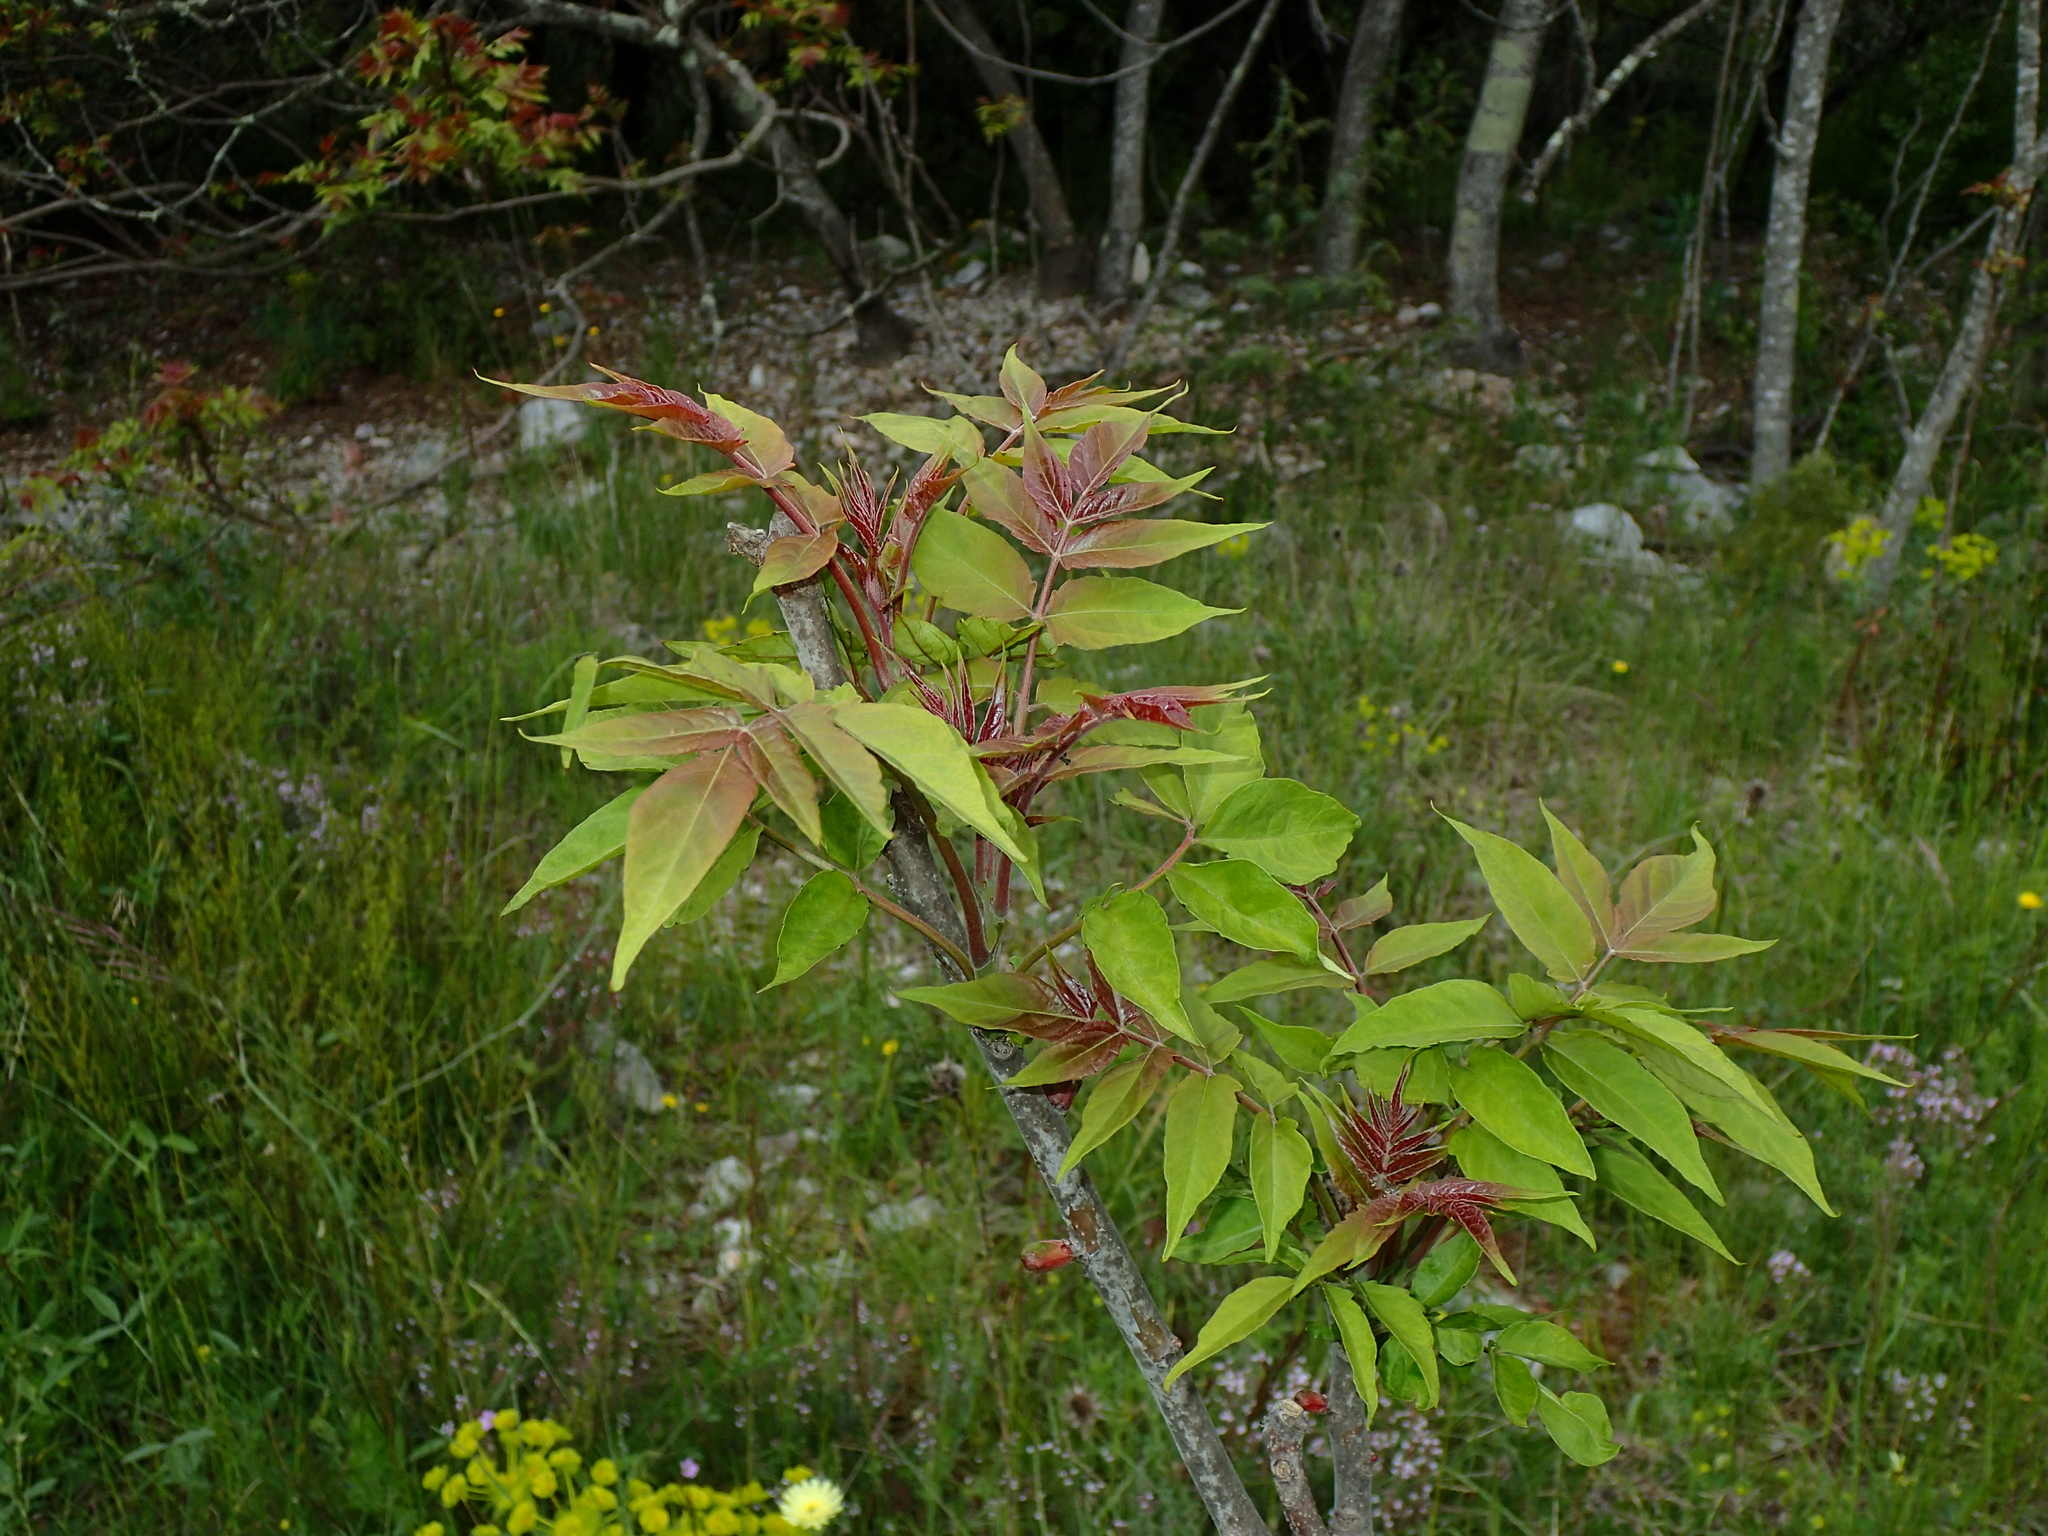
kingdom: Plantae
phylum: Tracheophyta
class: Magnoliopsida
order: Sapindales
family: Simaroubaceae
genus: Ailanthus
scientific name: Ailanthus altissima
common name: Tree-of-heaven
